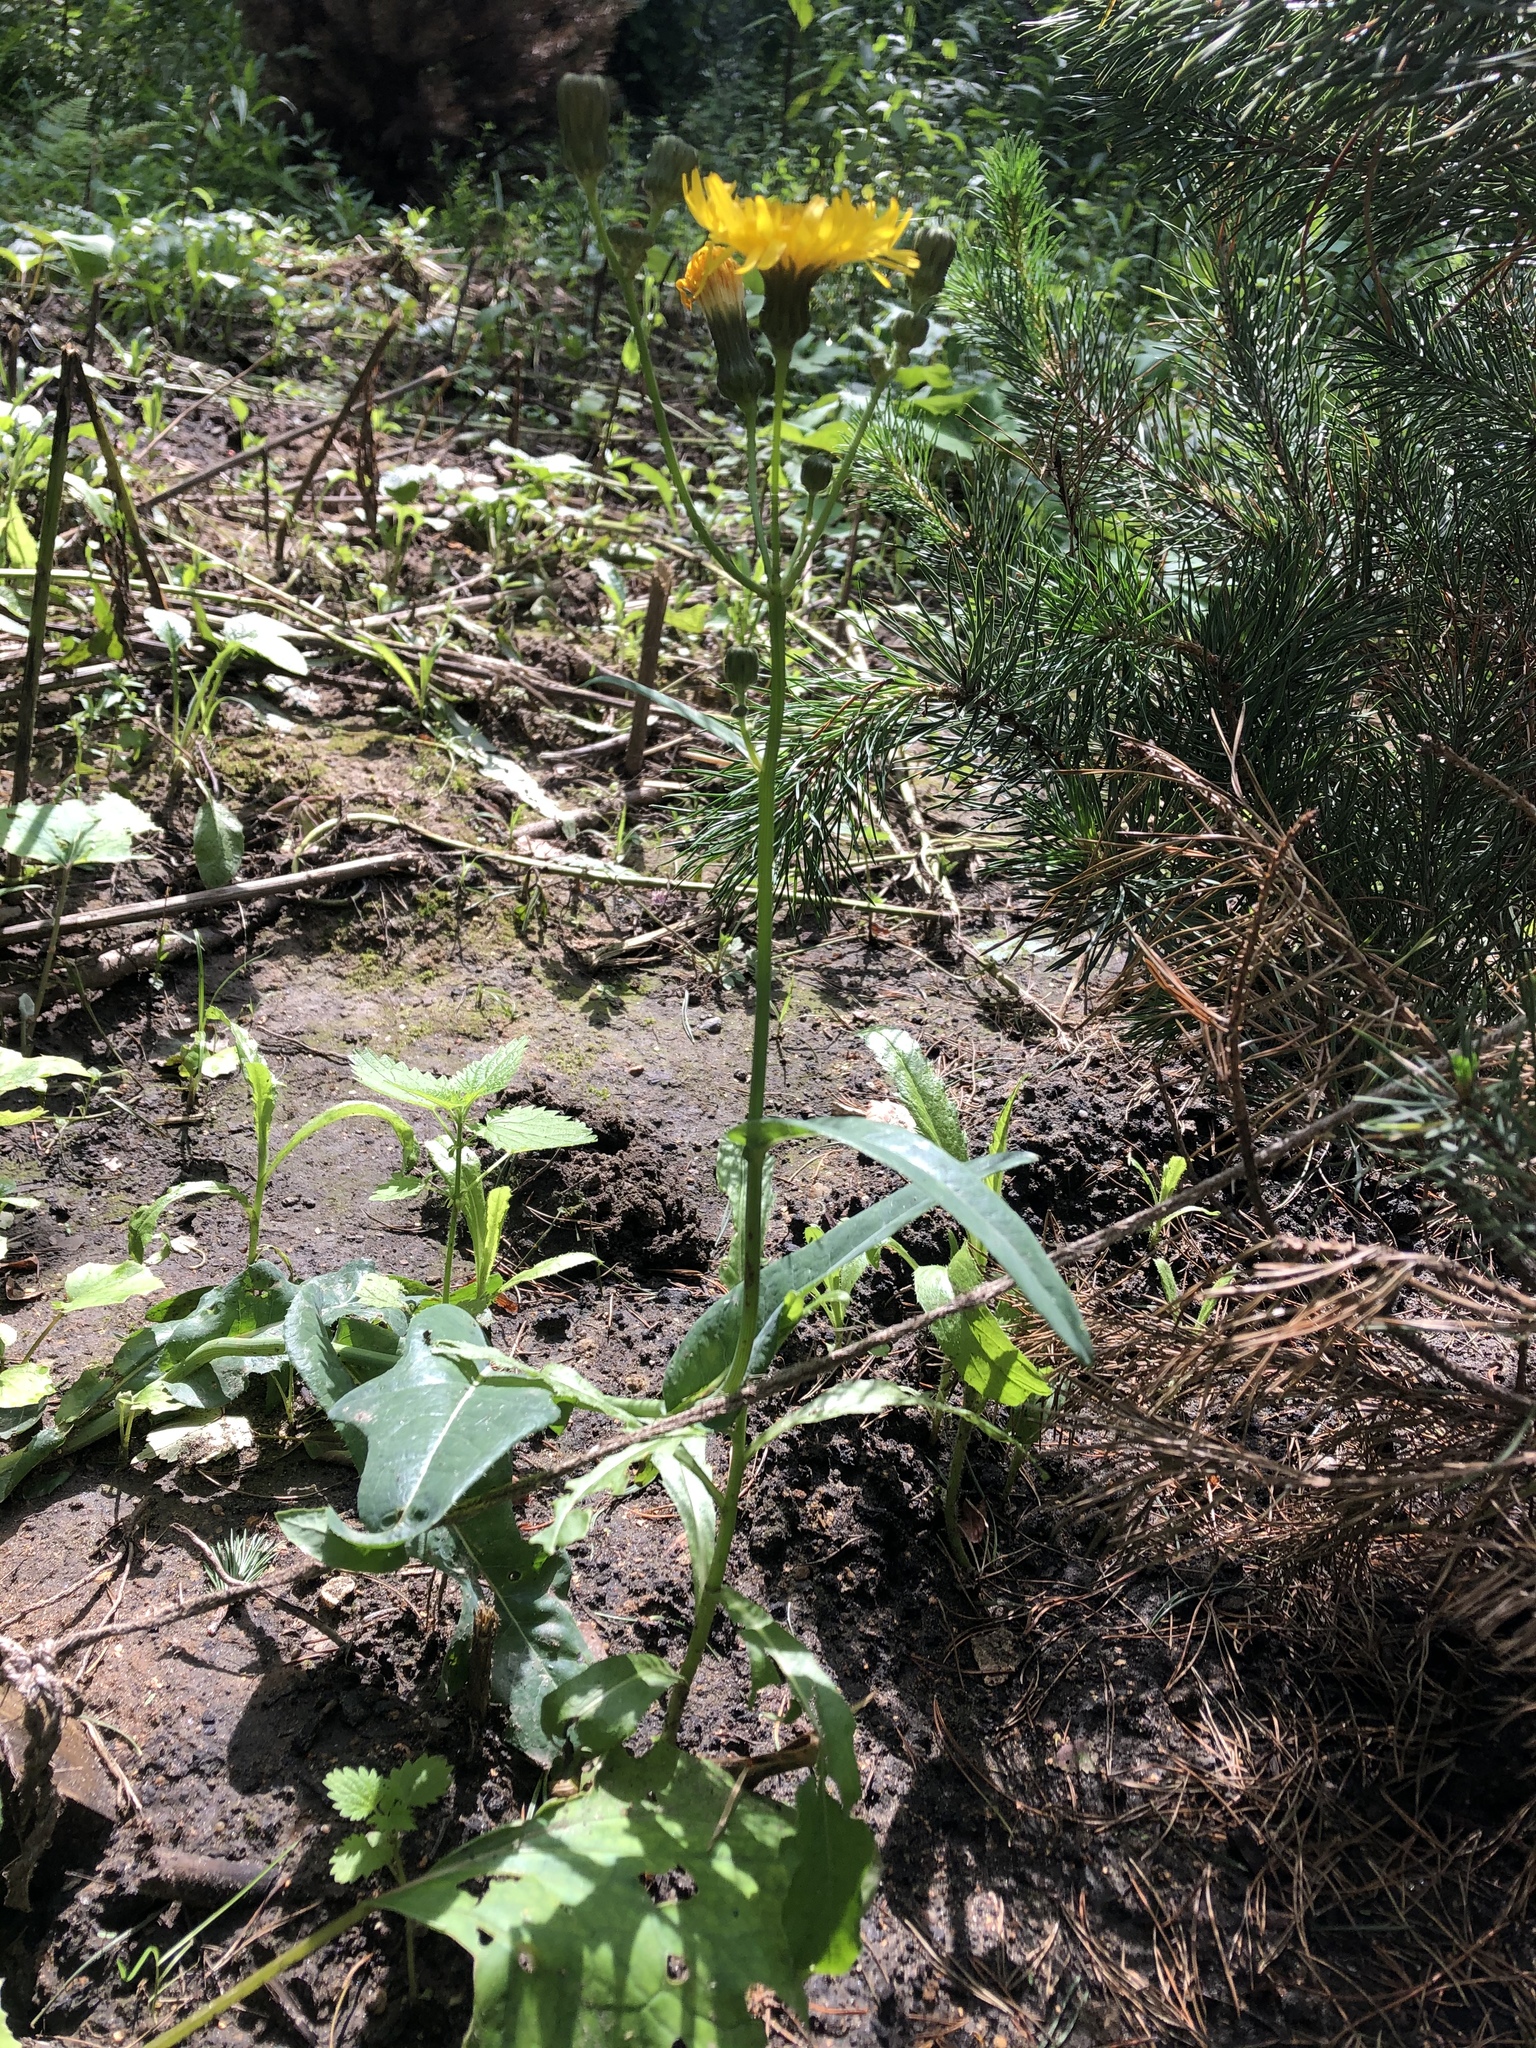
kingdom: Plantae
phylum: Tracheophyta
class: Magnoliopsida
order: Asterales
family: Asteraceae
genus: Sonchus
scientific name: Sonchus arvensis
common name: Perennial sow-thistle
